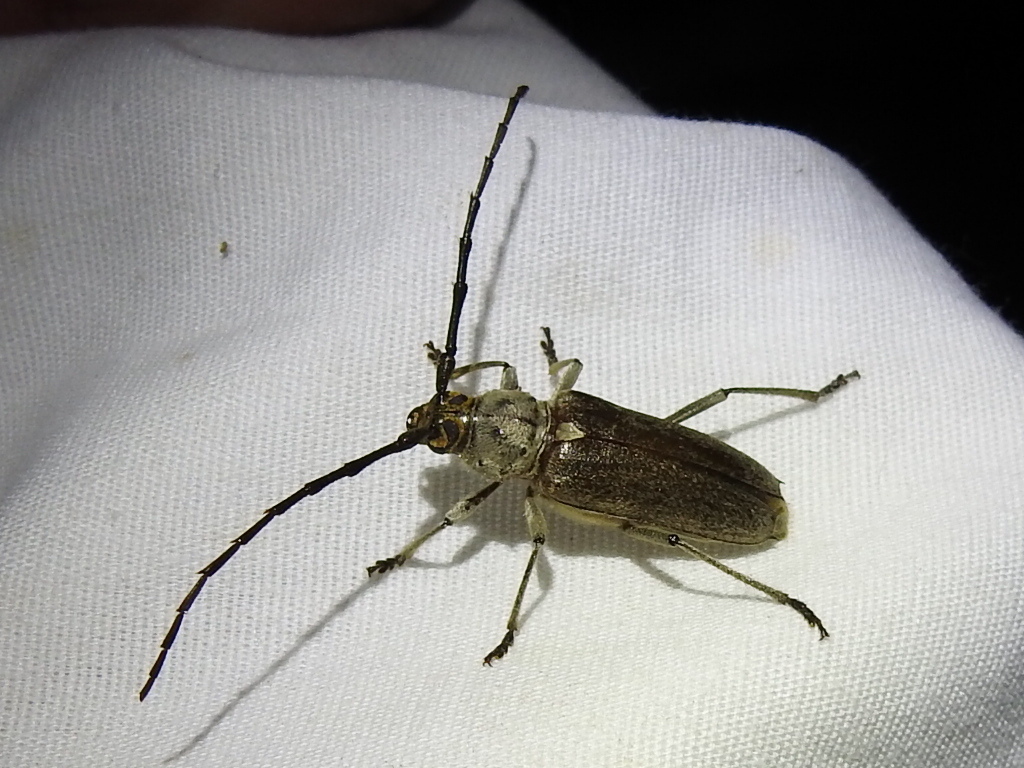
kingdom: Animalia
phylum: Arthropoda
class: Insecta
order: Coleoptera
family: Cerambycidae
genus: Gnaphalodes
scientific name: Gnaphalodes trachyderoides
